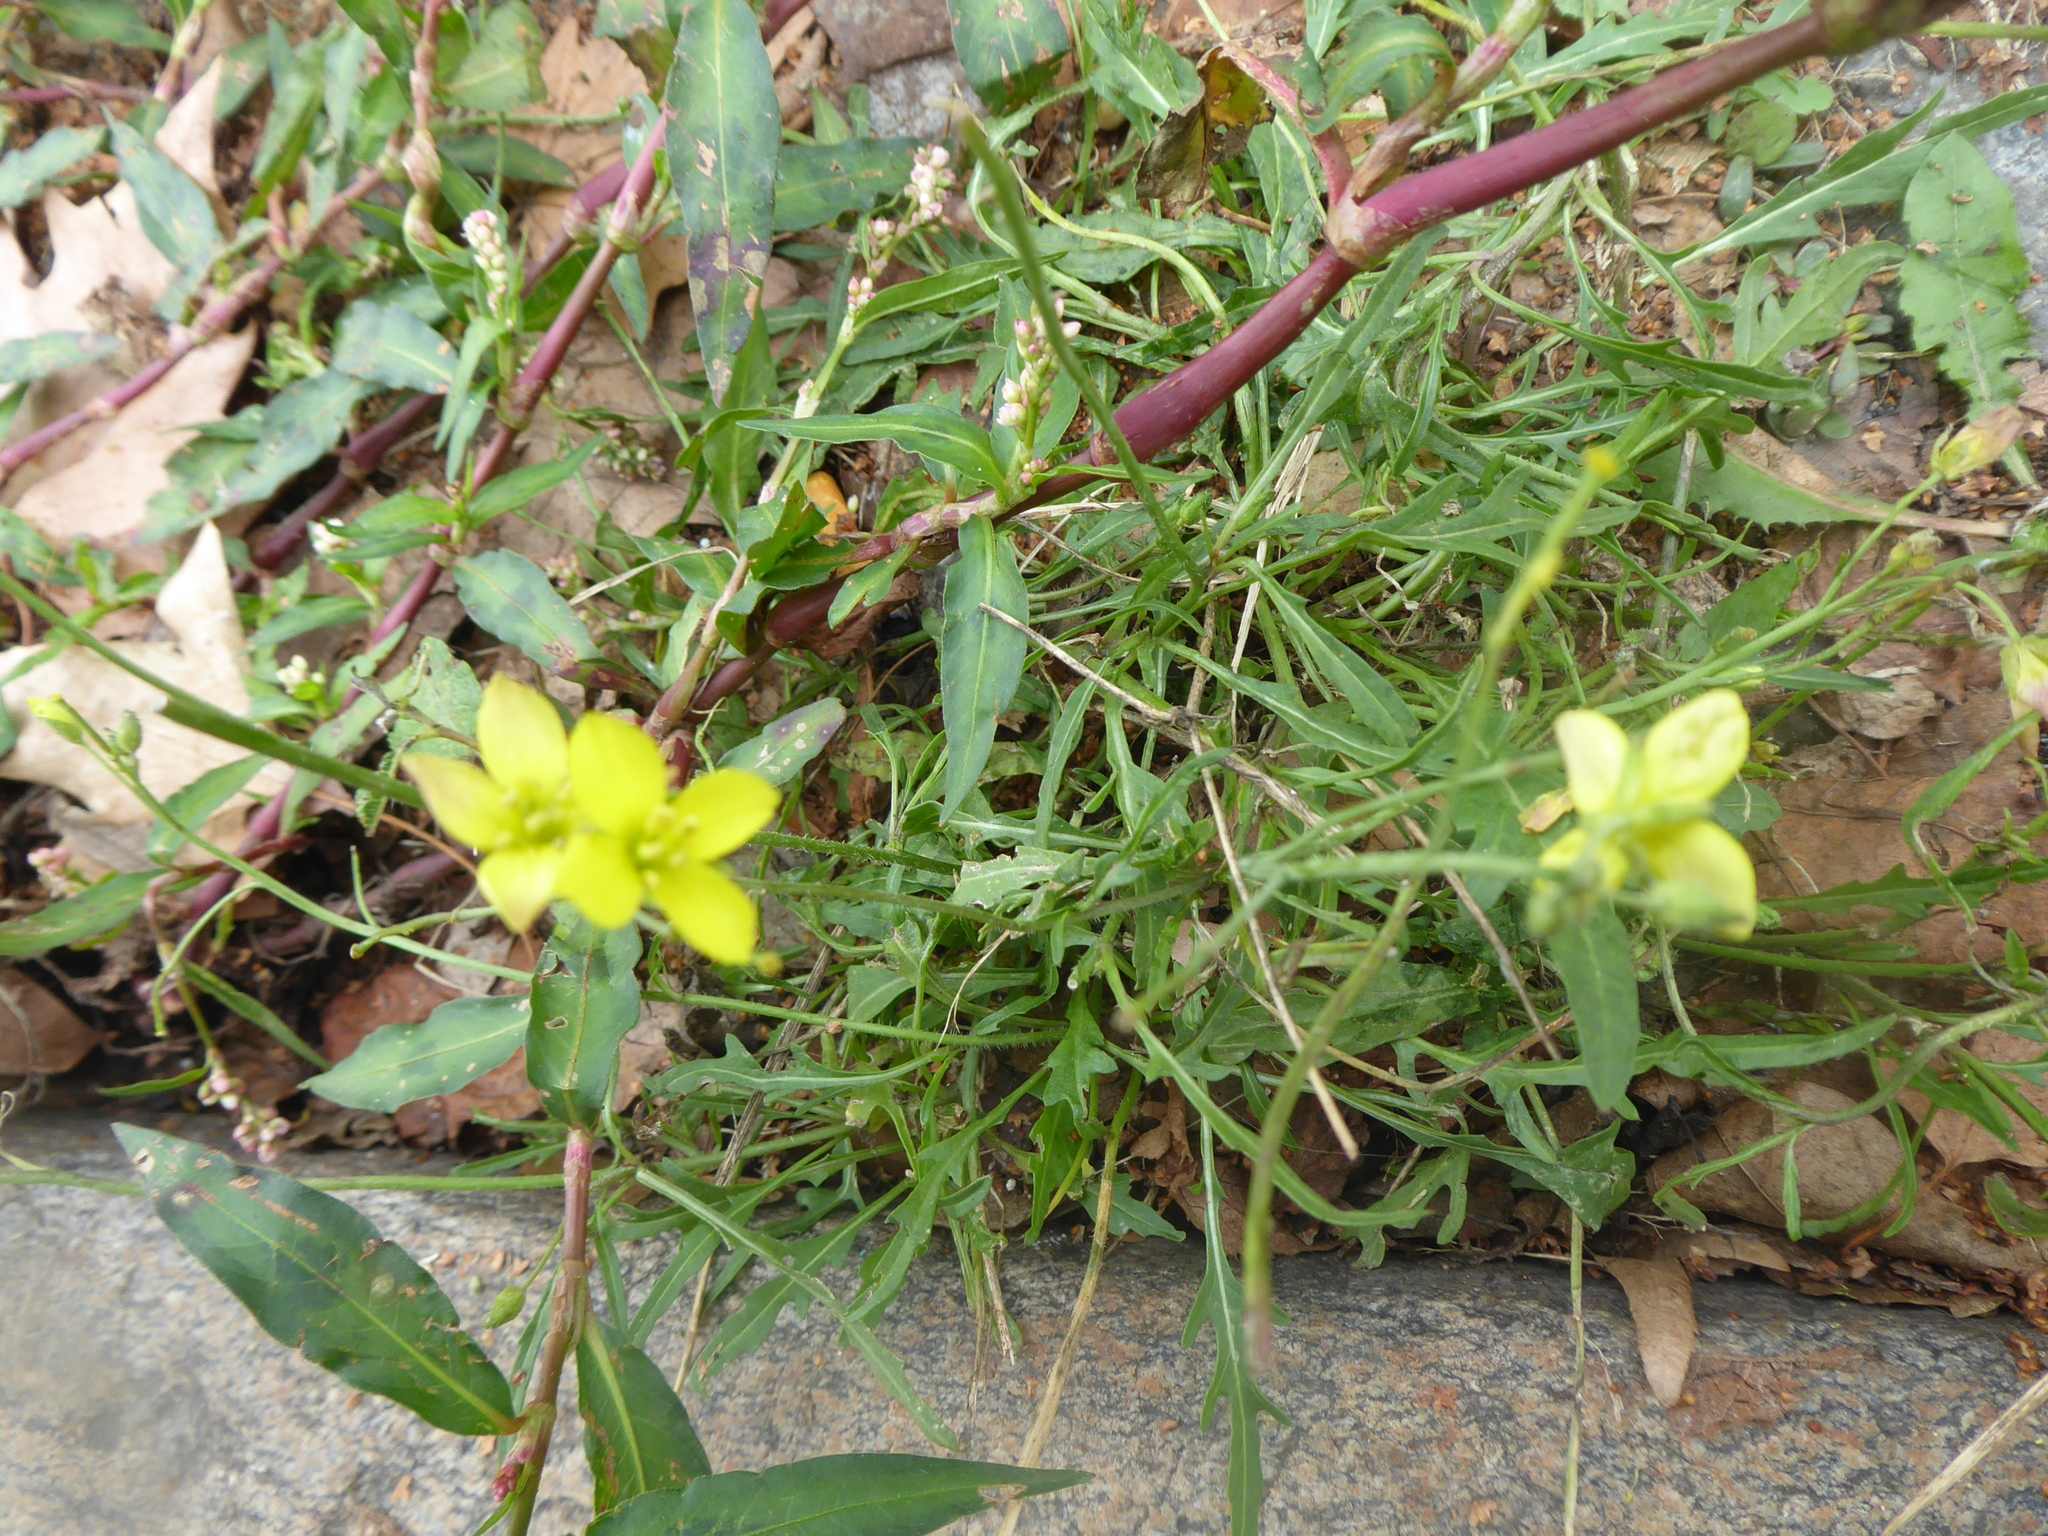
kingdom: Plantae
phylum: Tracheophyta
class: Magnoliopsida
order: Brassicales
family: Brassicaceae
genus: Diplotaxis
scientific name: Diplotaxis tenuifolia
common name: Perennial wall-rocket
